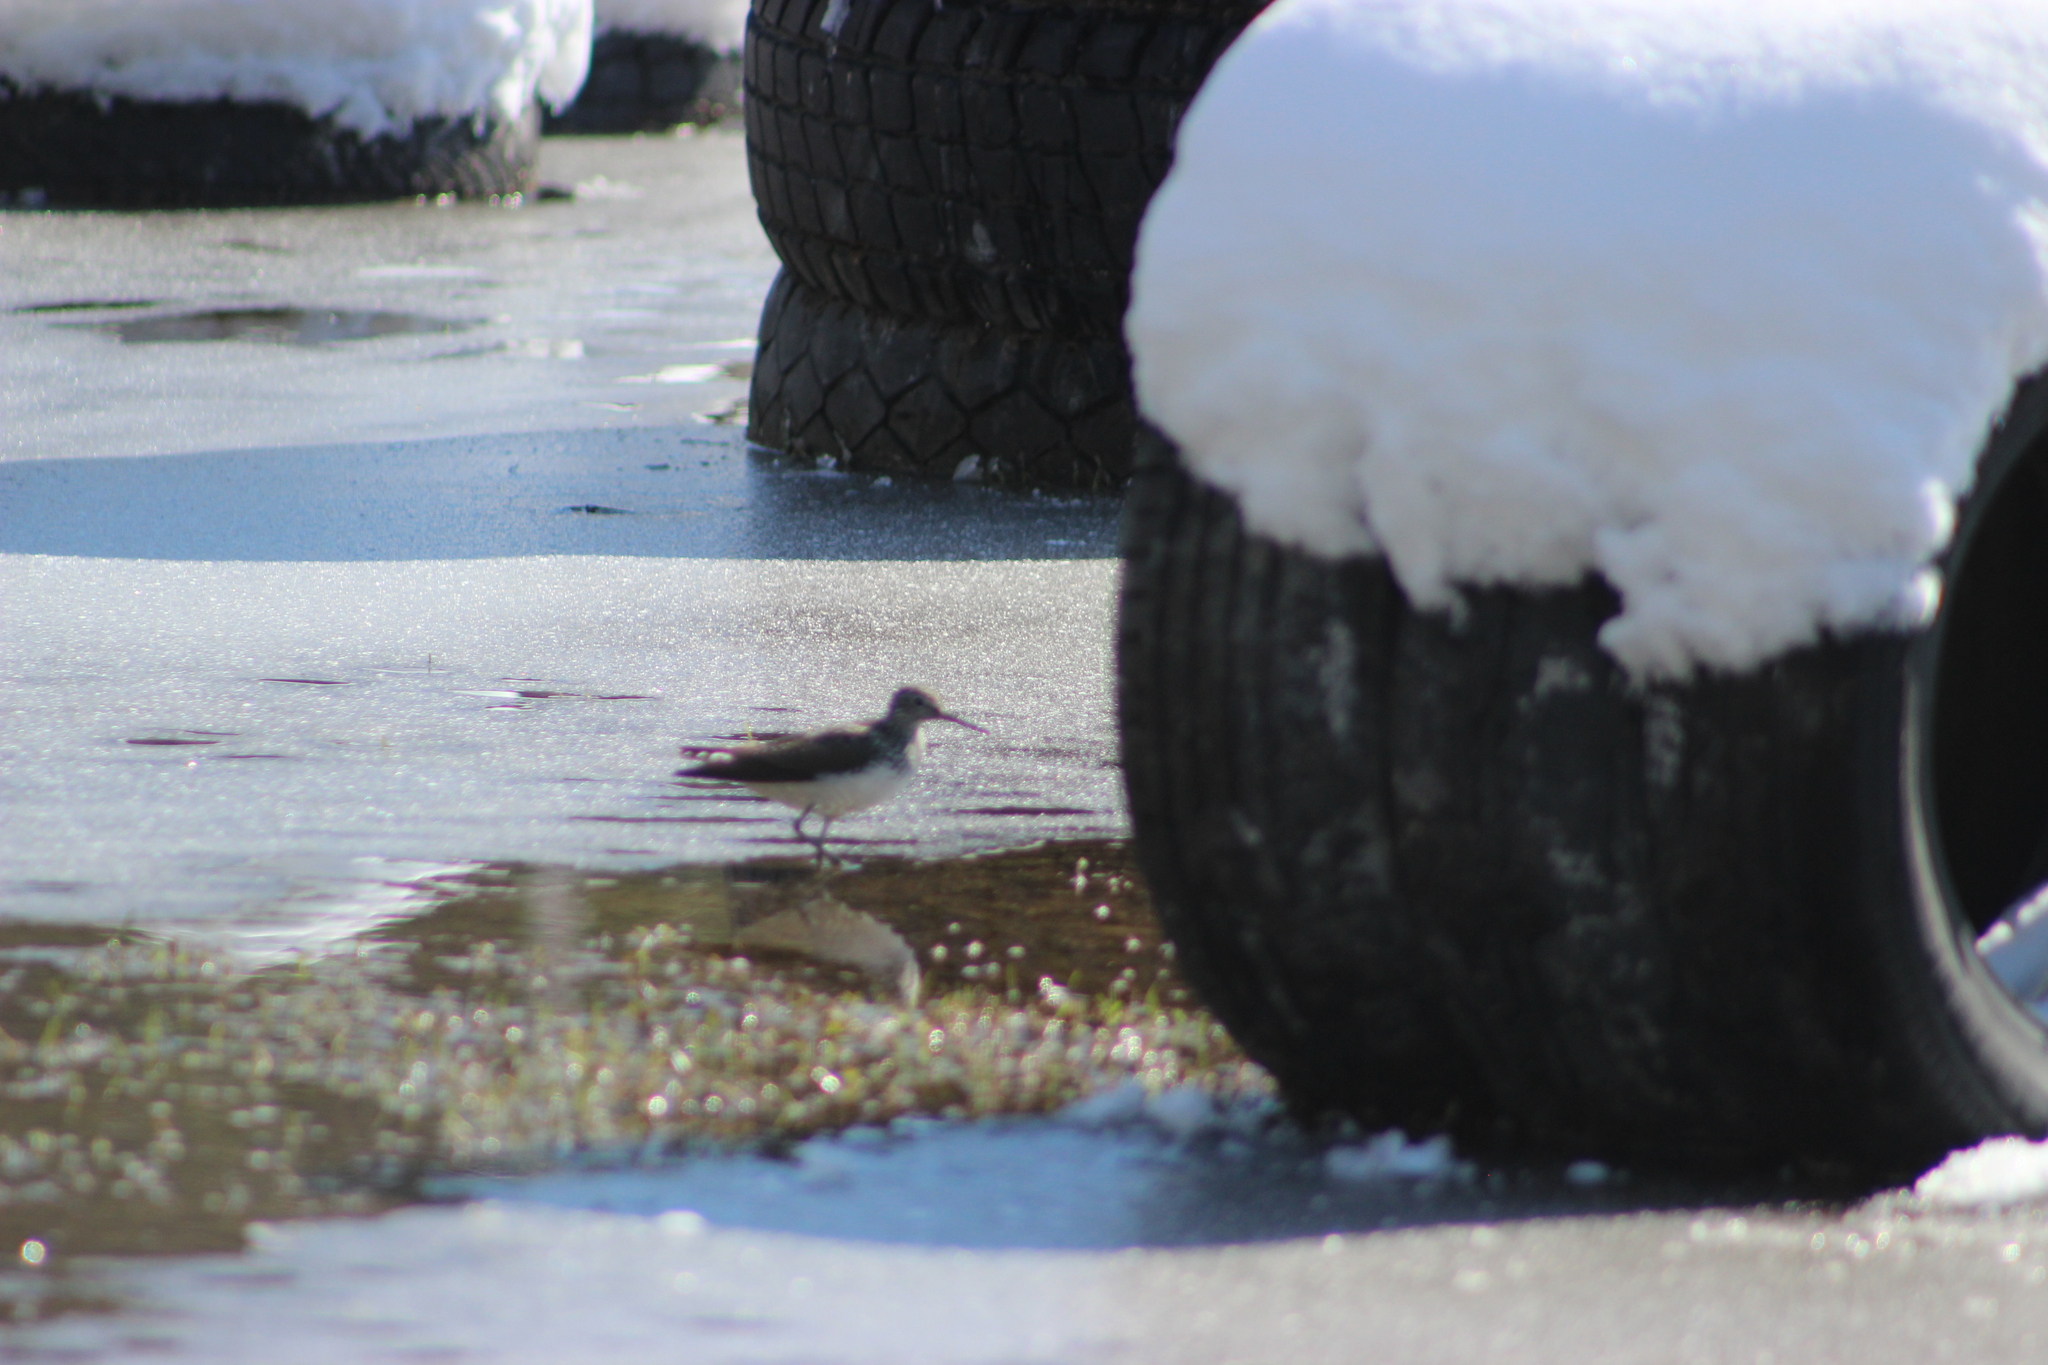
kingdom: Animalia
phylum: Chordata
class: Aves
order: Charadriiformes
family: Scolopacidae
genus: Tringa
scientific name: Tringa ochropus
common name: Green sandpiper
